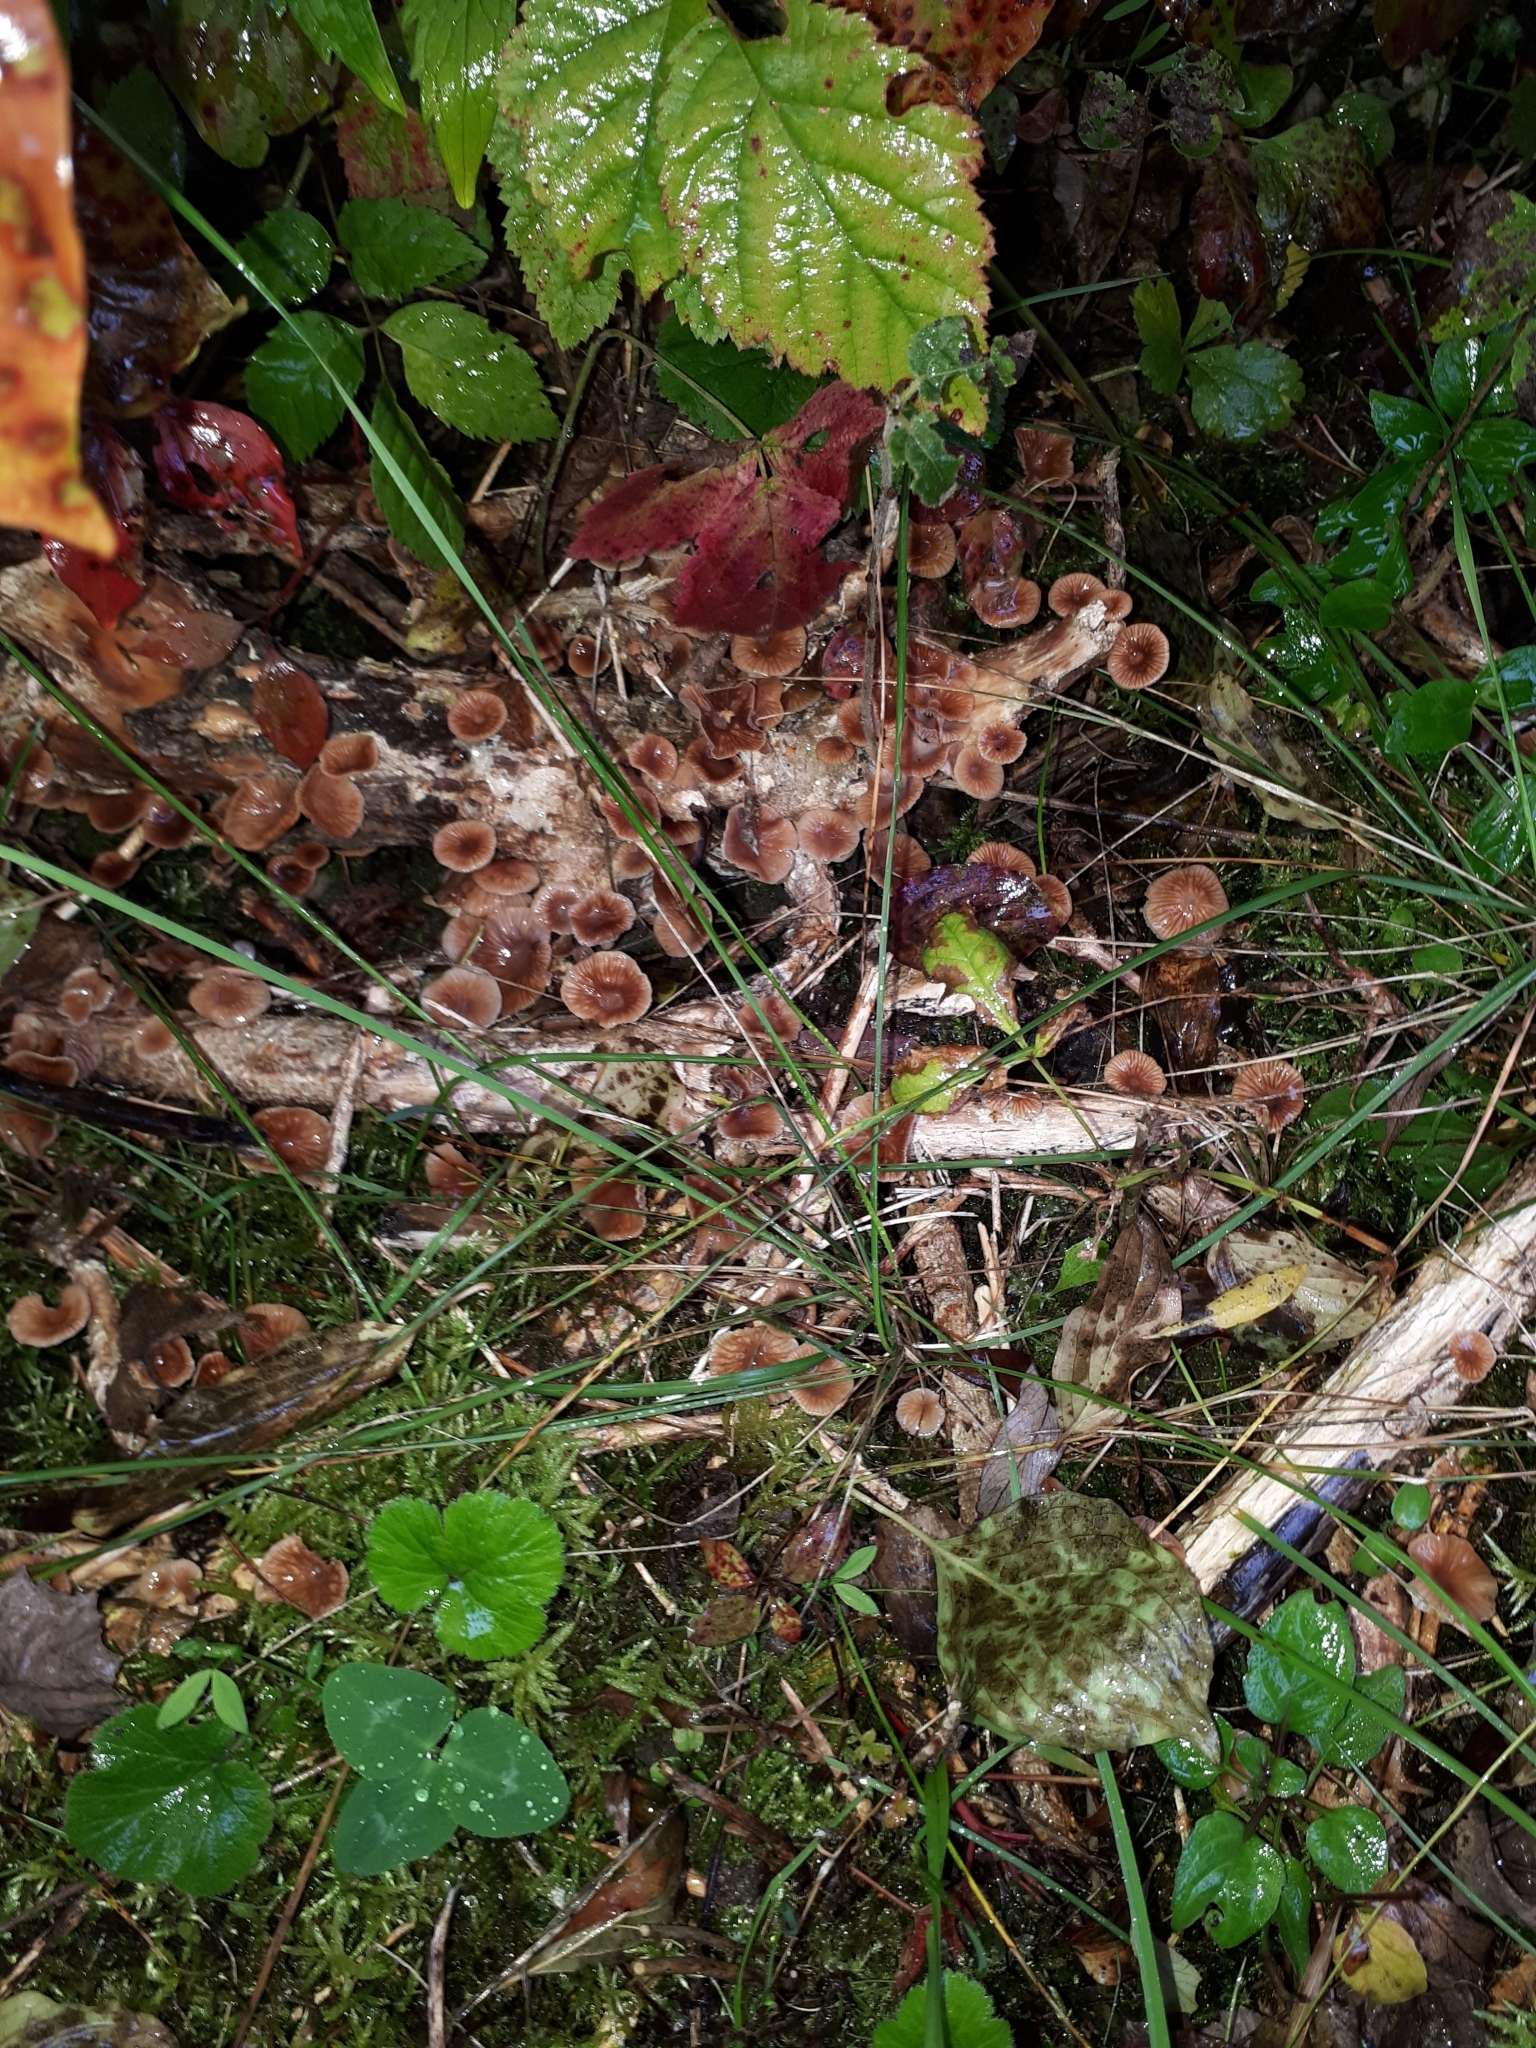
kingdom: Fungi
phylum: Basidiomycota
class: Agaricomycetes
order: Agaricales
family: Omphalotaceae
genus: Gymnopus
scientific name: Gymnopus foetidus
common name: Foetid parachute
